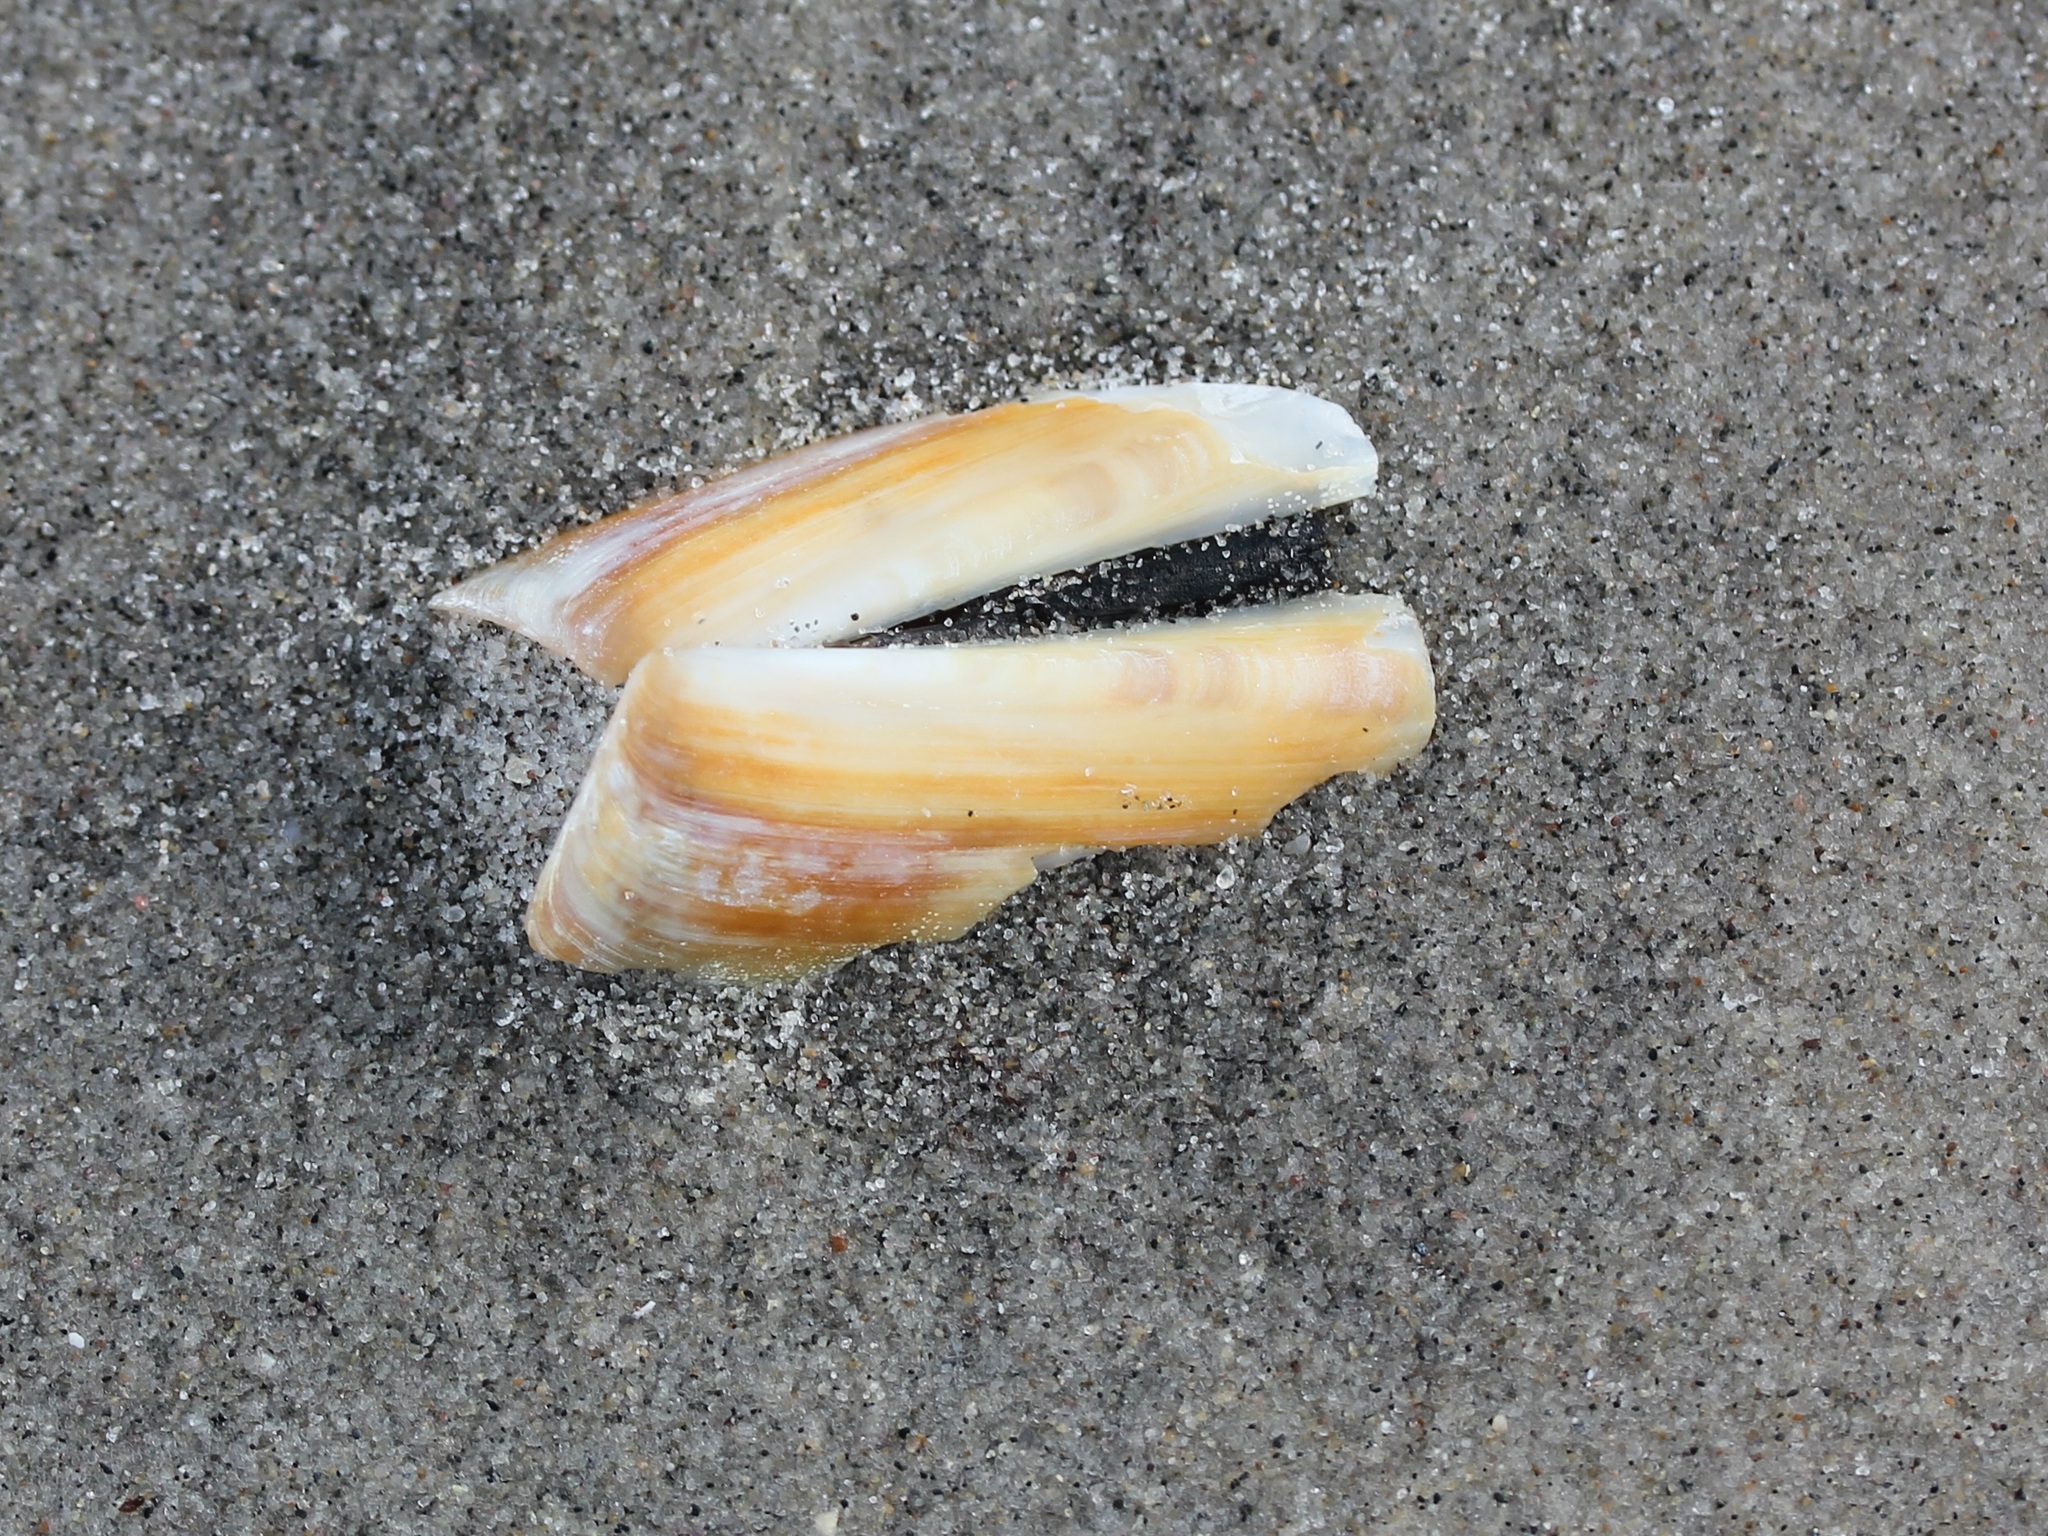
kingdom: Animalia
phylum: Mollusca
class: Bivalvia
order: Adapedonta
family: Pharidae
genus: Ensis
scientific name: Ensis leei
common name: American jack knife clam
